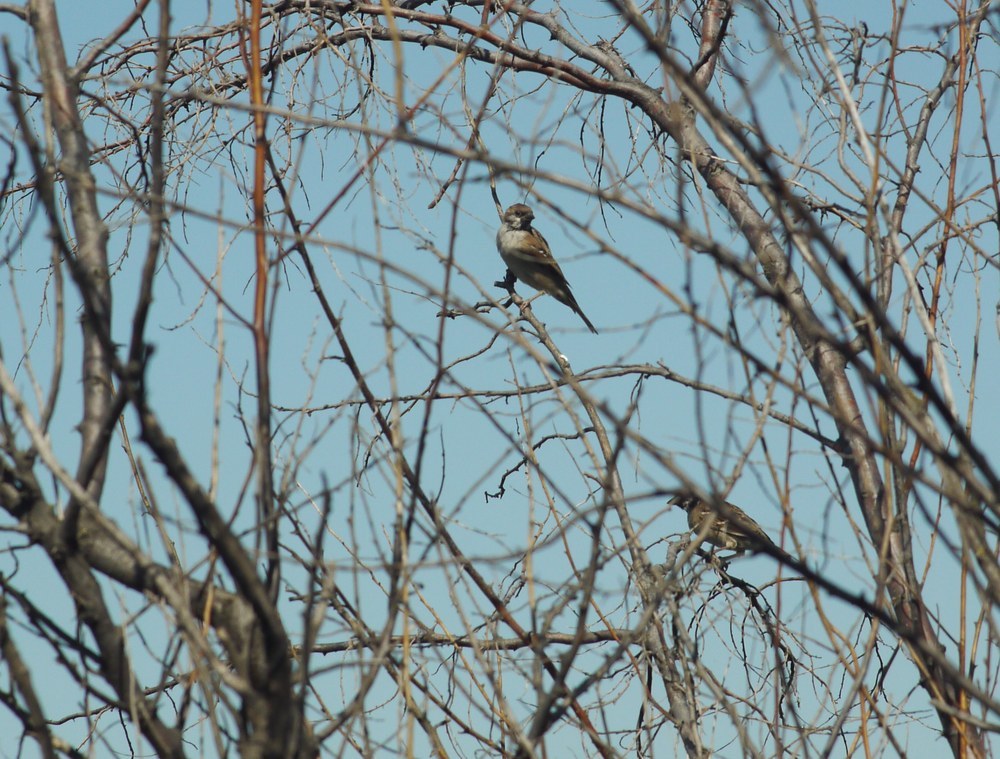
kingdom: Animalia
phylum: Chordata
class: Aves
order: Passeriformes
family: Passeridae
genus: Passer
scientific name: Passer domesticus
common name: House sparrow
